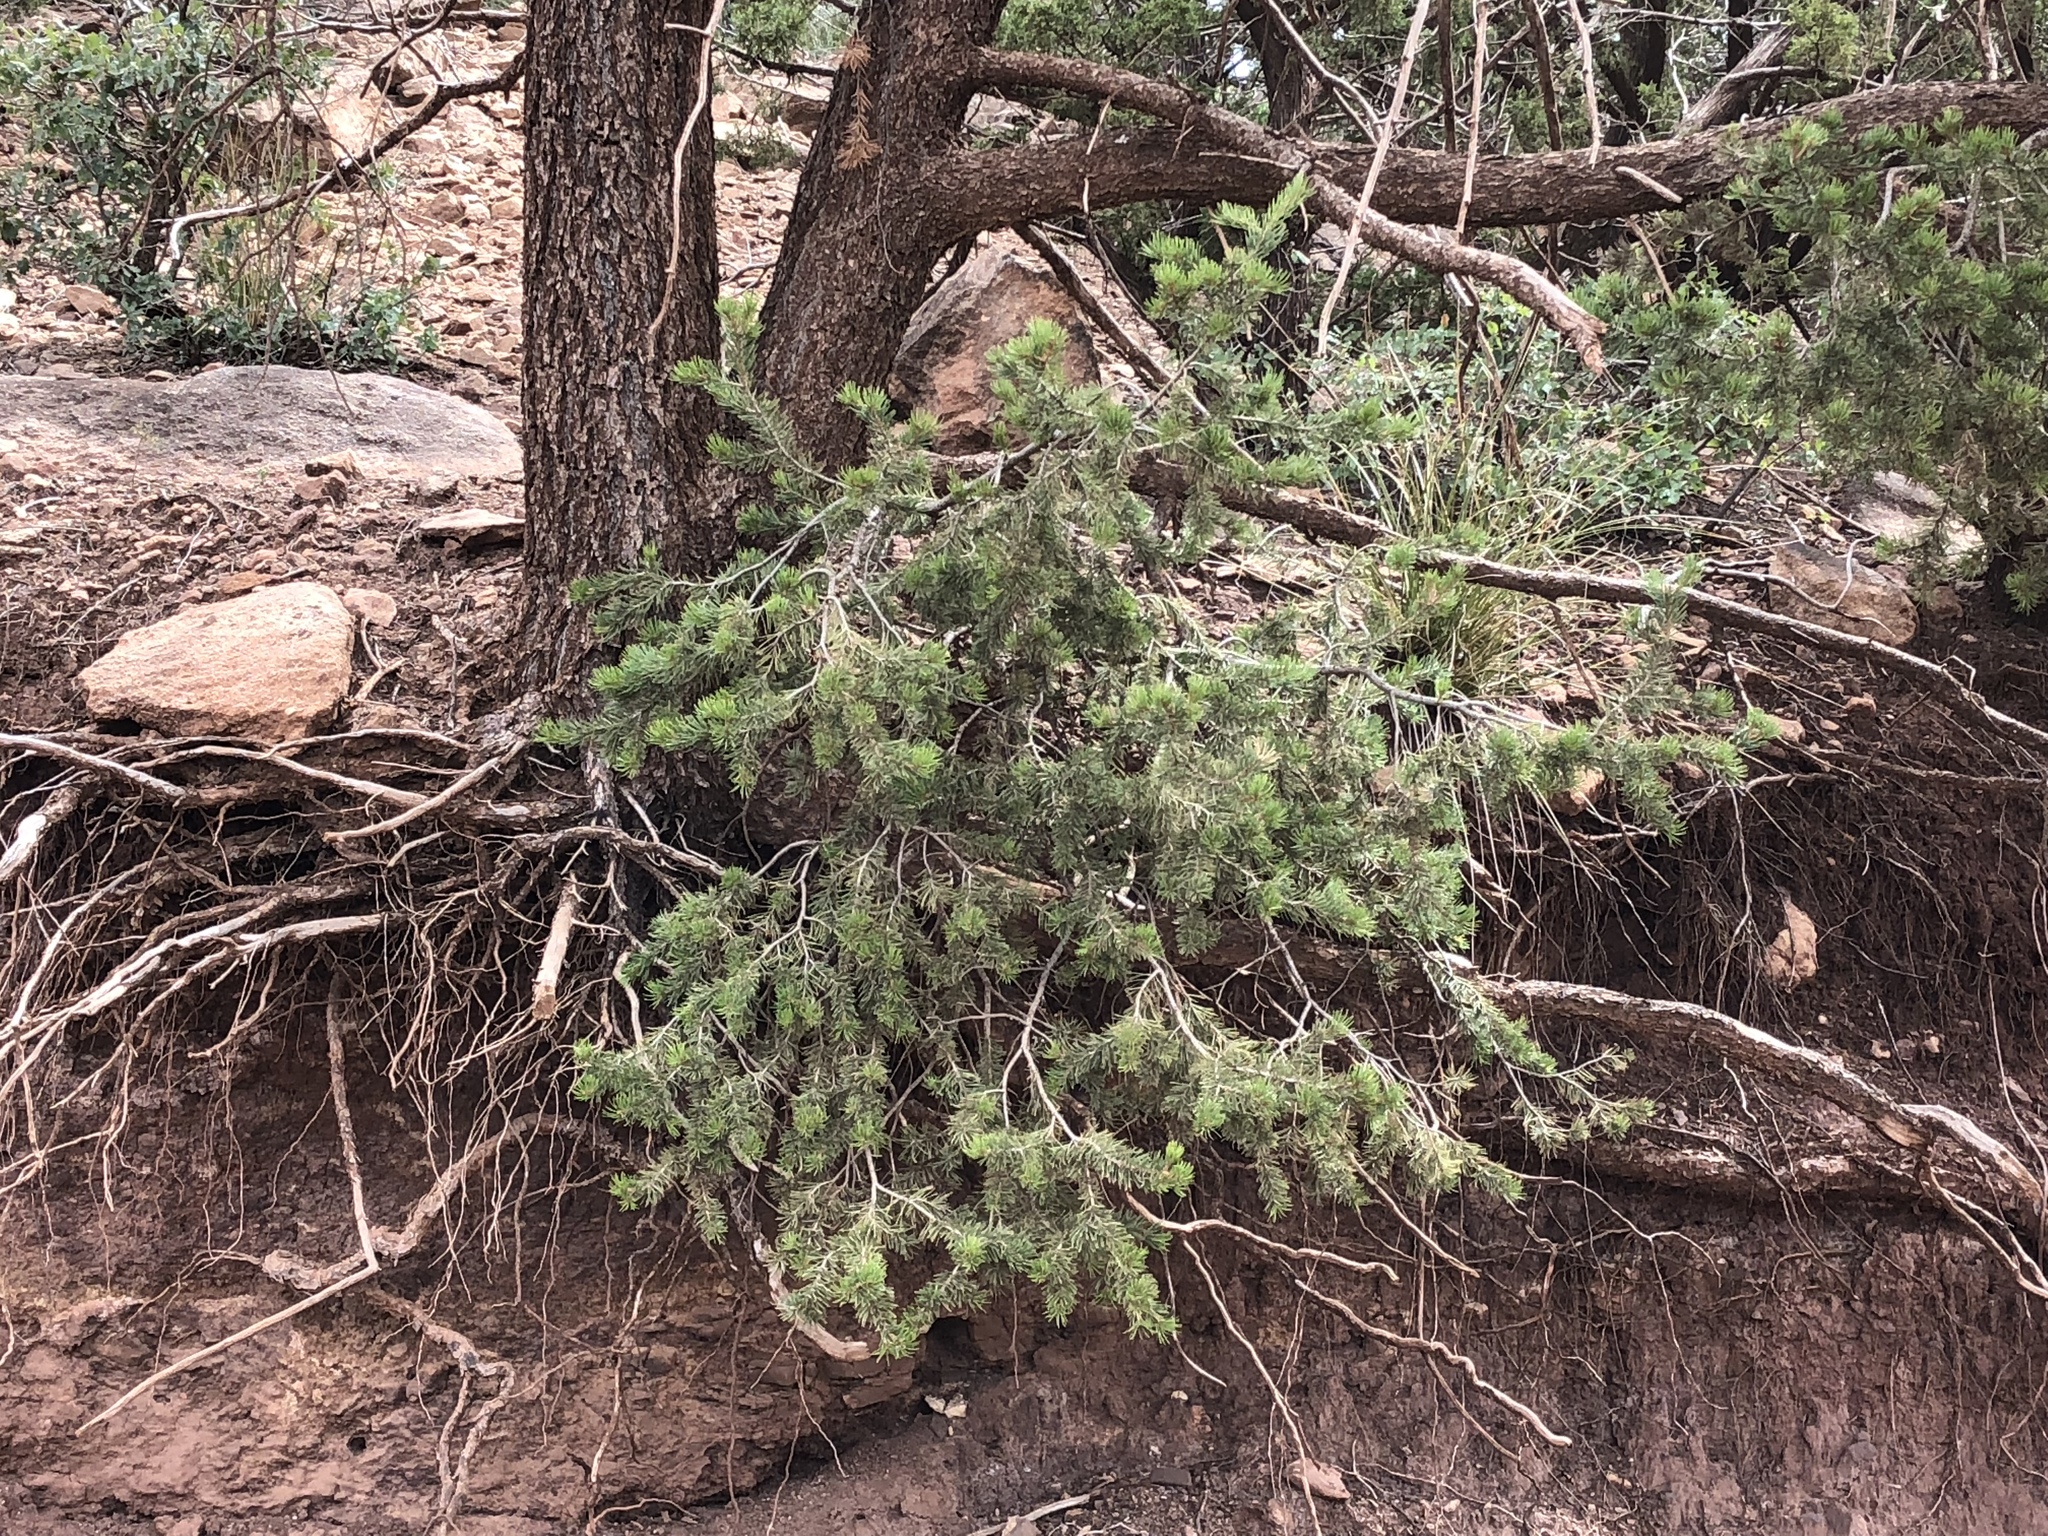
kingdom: Plantae
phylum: Tracheophyta
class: Pinopsida
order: Pinales
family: Pinaceae
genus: Pinus
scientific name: Pinus edulis
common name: Colorado pinyon
